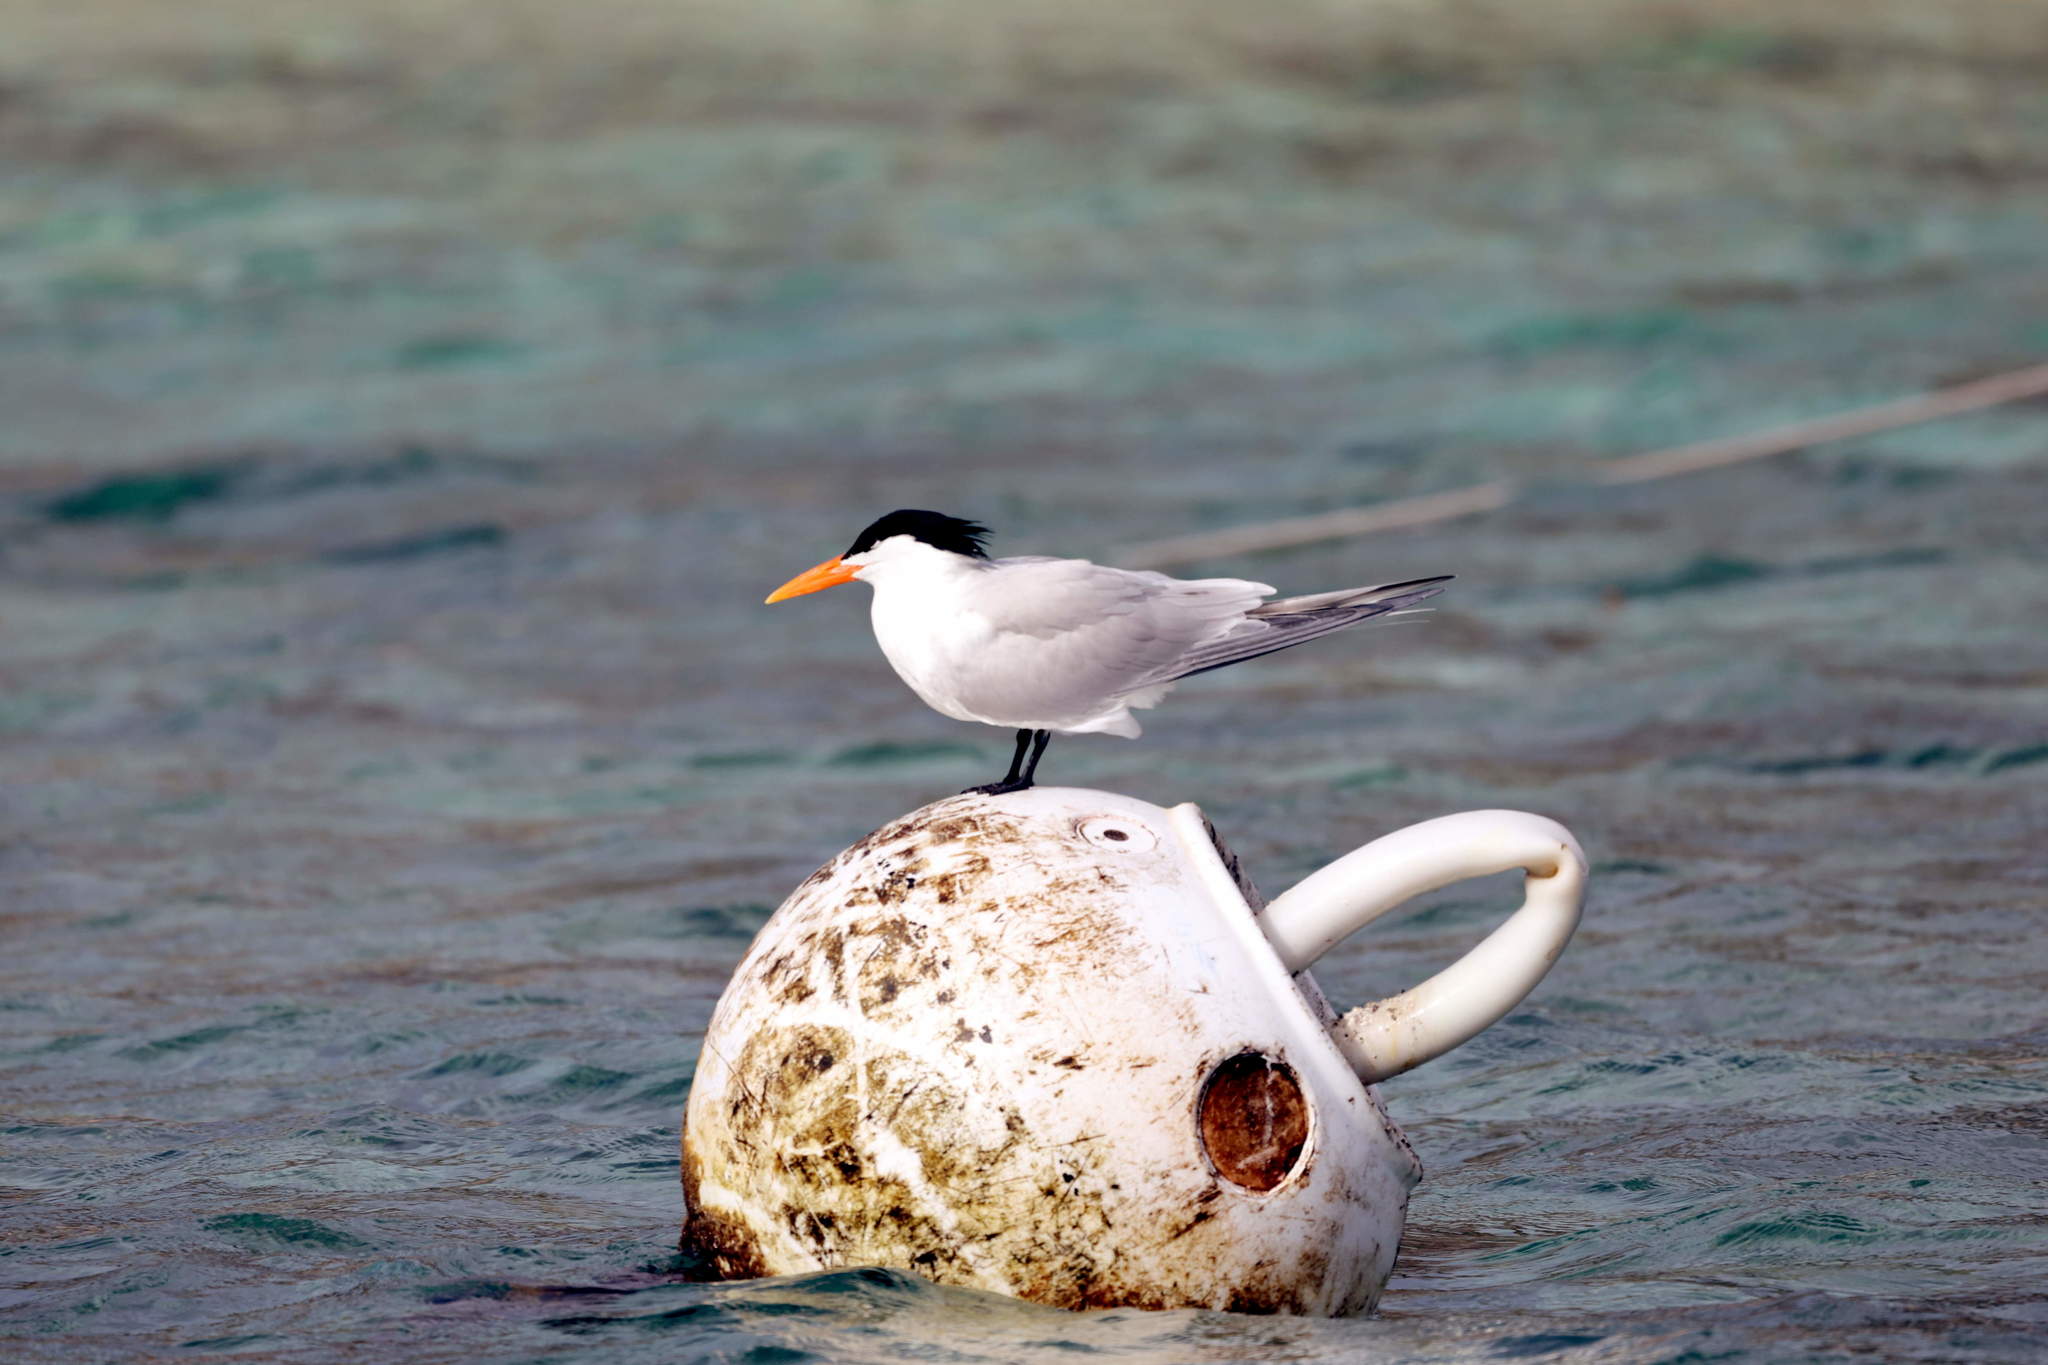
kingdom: Animalia
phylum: Chordata
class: Aves
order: Charadriiformes
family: Laridae
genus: Thalasseus
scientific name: Thalasseus maximus
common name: Royal tern
